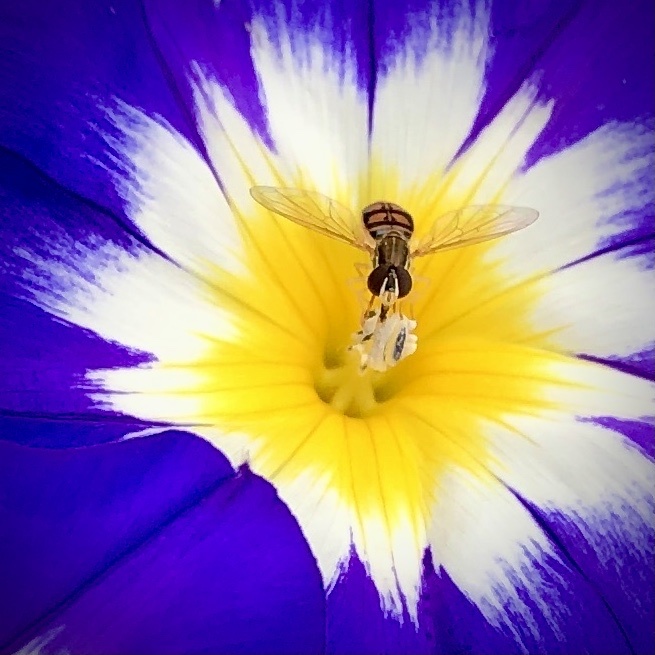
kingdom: Animalia
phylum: Arthropoda
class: Insecta
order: Diptera
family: Syrphidae
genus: Toxomerus
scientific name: Toxomerus marginatus
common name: Syrphid fly
